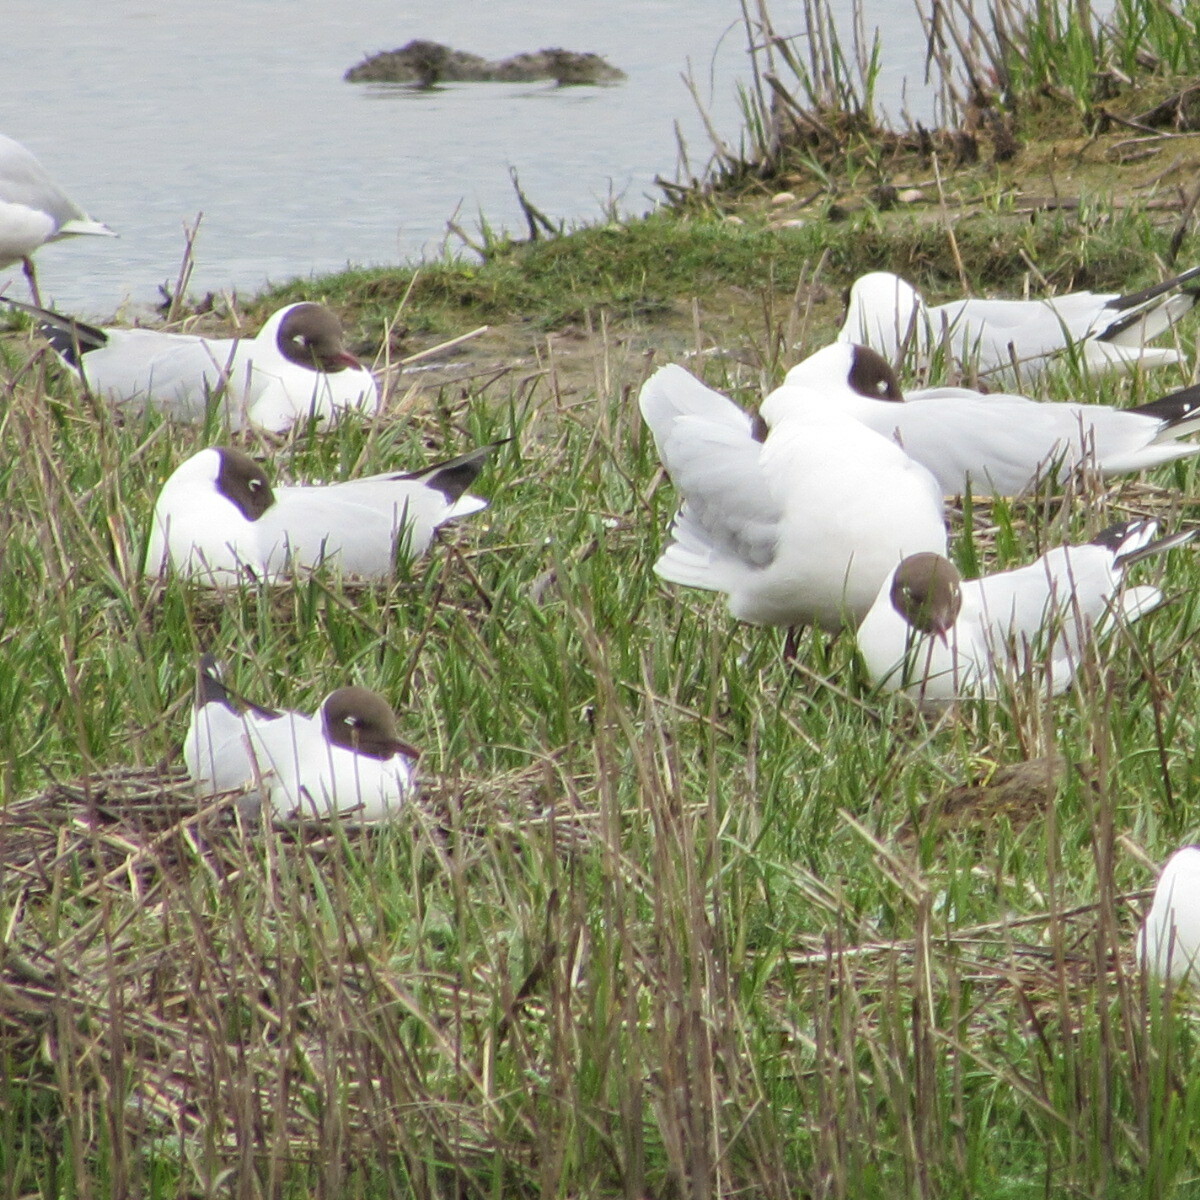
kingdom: Animalia
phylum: Chordata
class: Aves
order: Charadriiformes
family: Laridae
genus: Chroicocephalus
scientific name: Chroicocephalus ridibundus
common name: Black-headed gull
